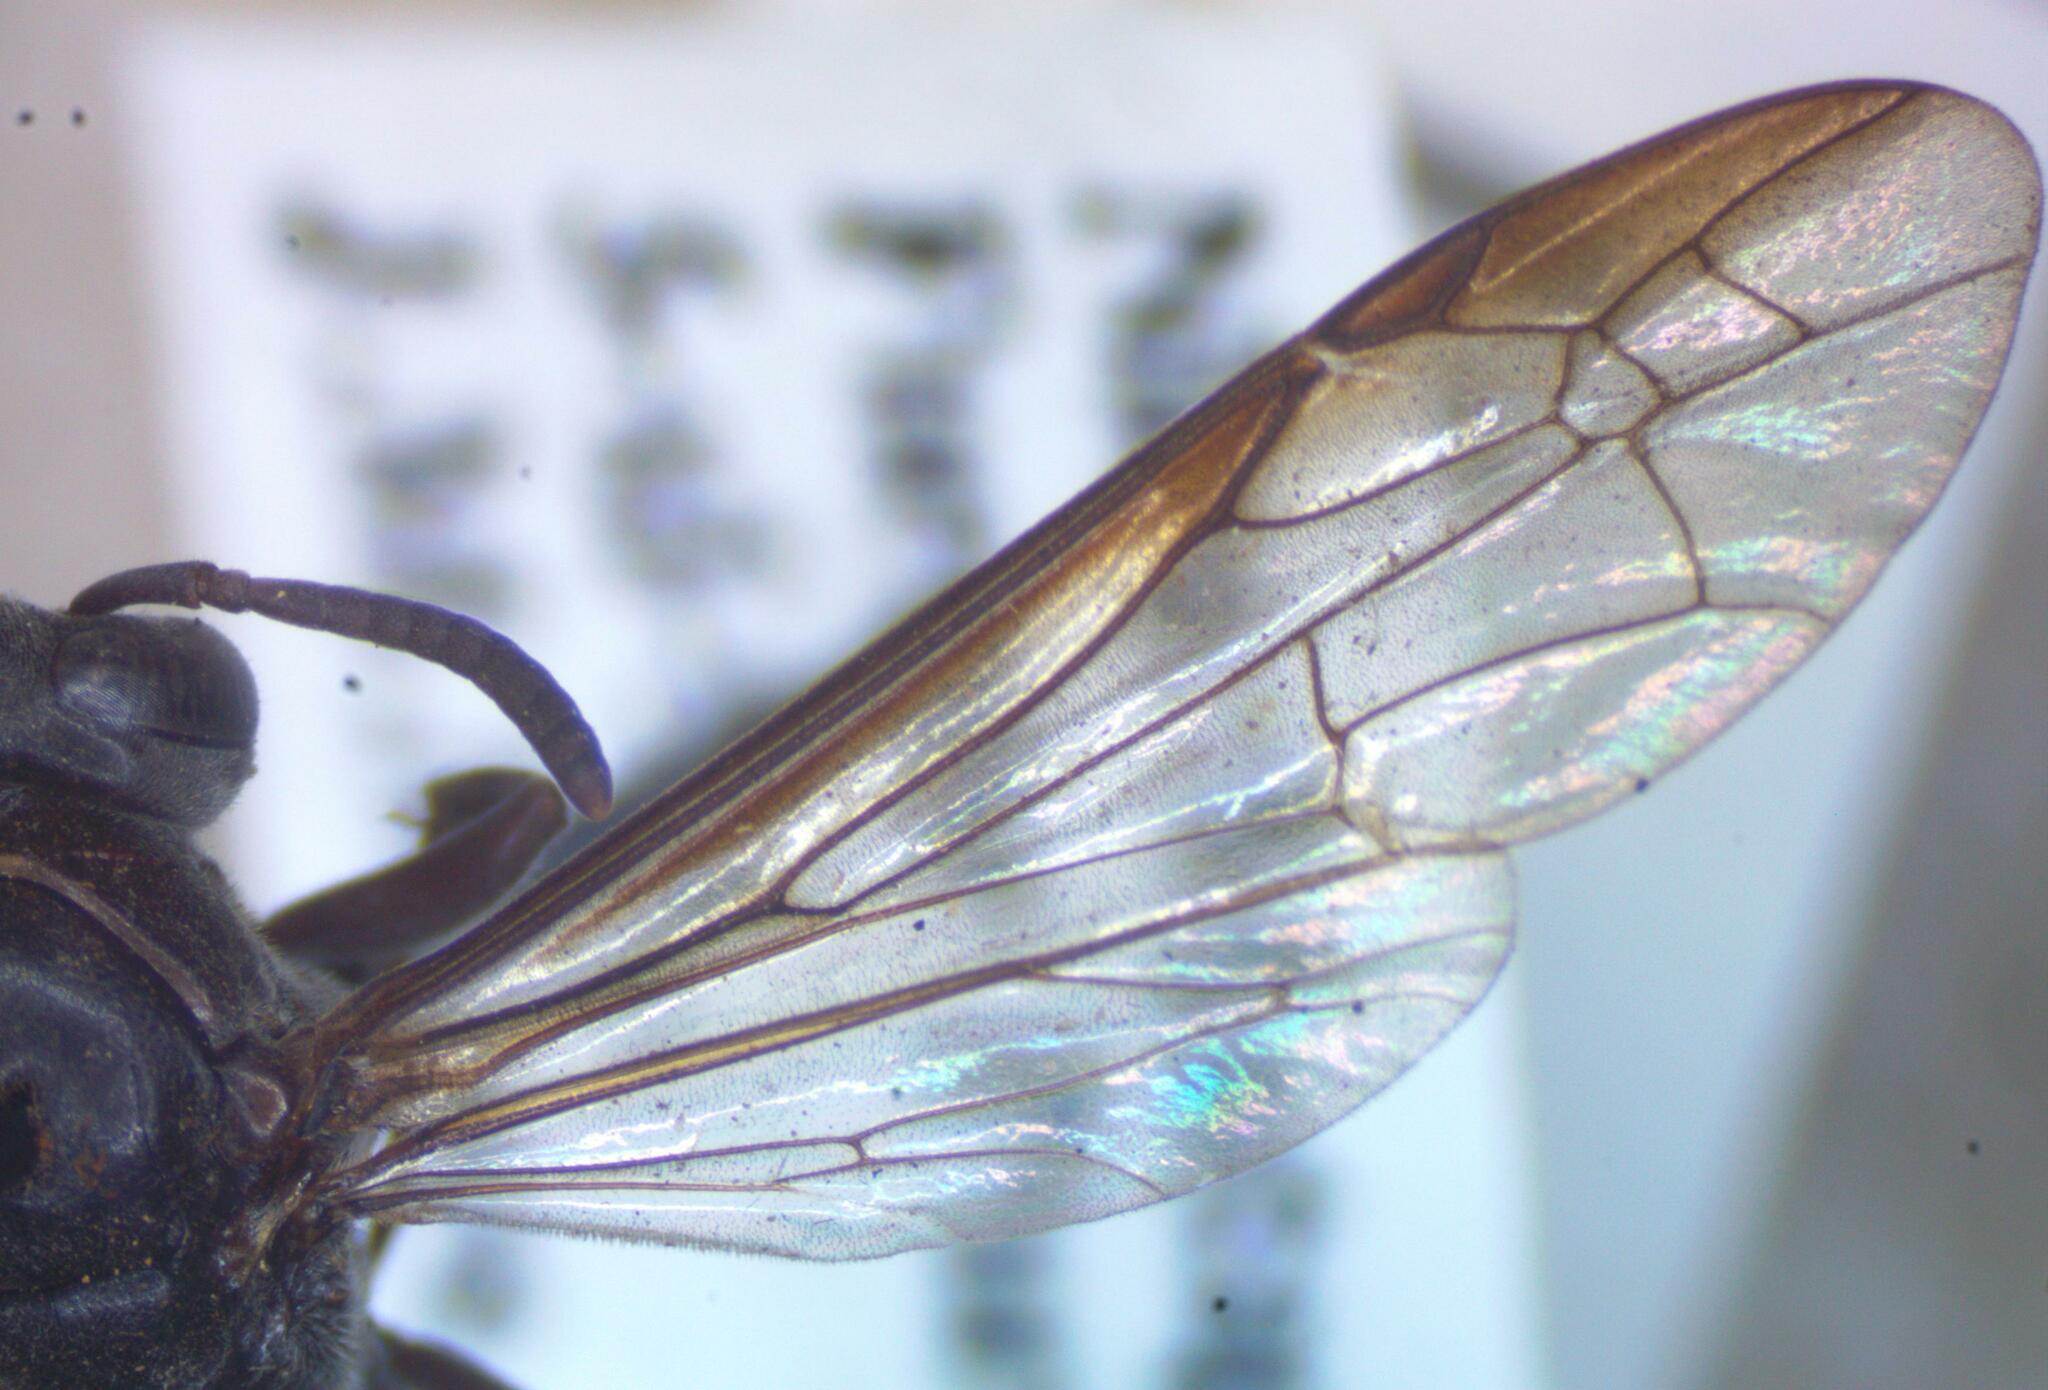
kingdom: Animalia
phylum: Arthropoda
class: Insecta
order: Hymenoptera
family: Eumenidae
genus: Polybia
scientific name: Polybia raui
